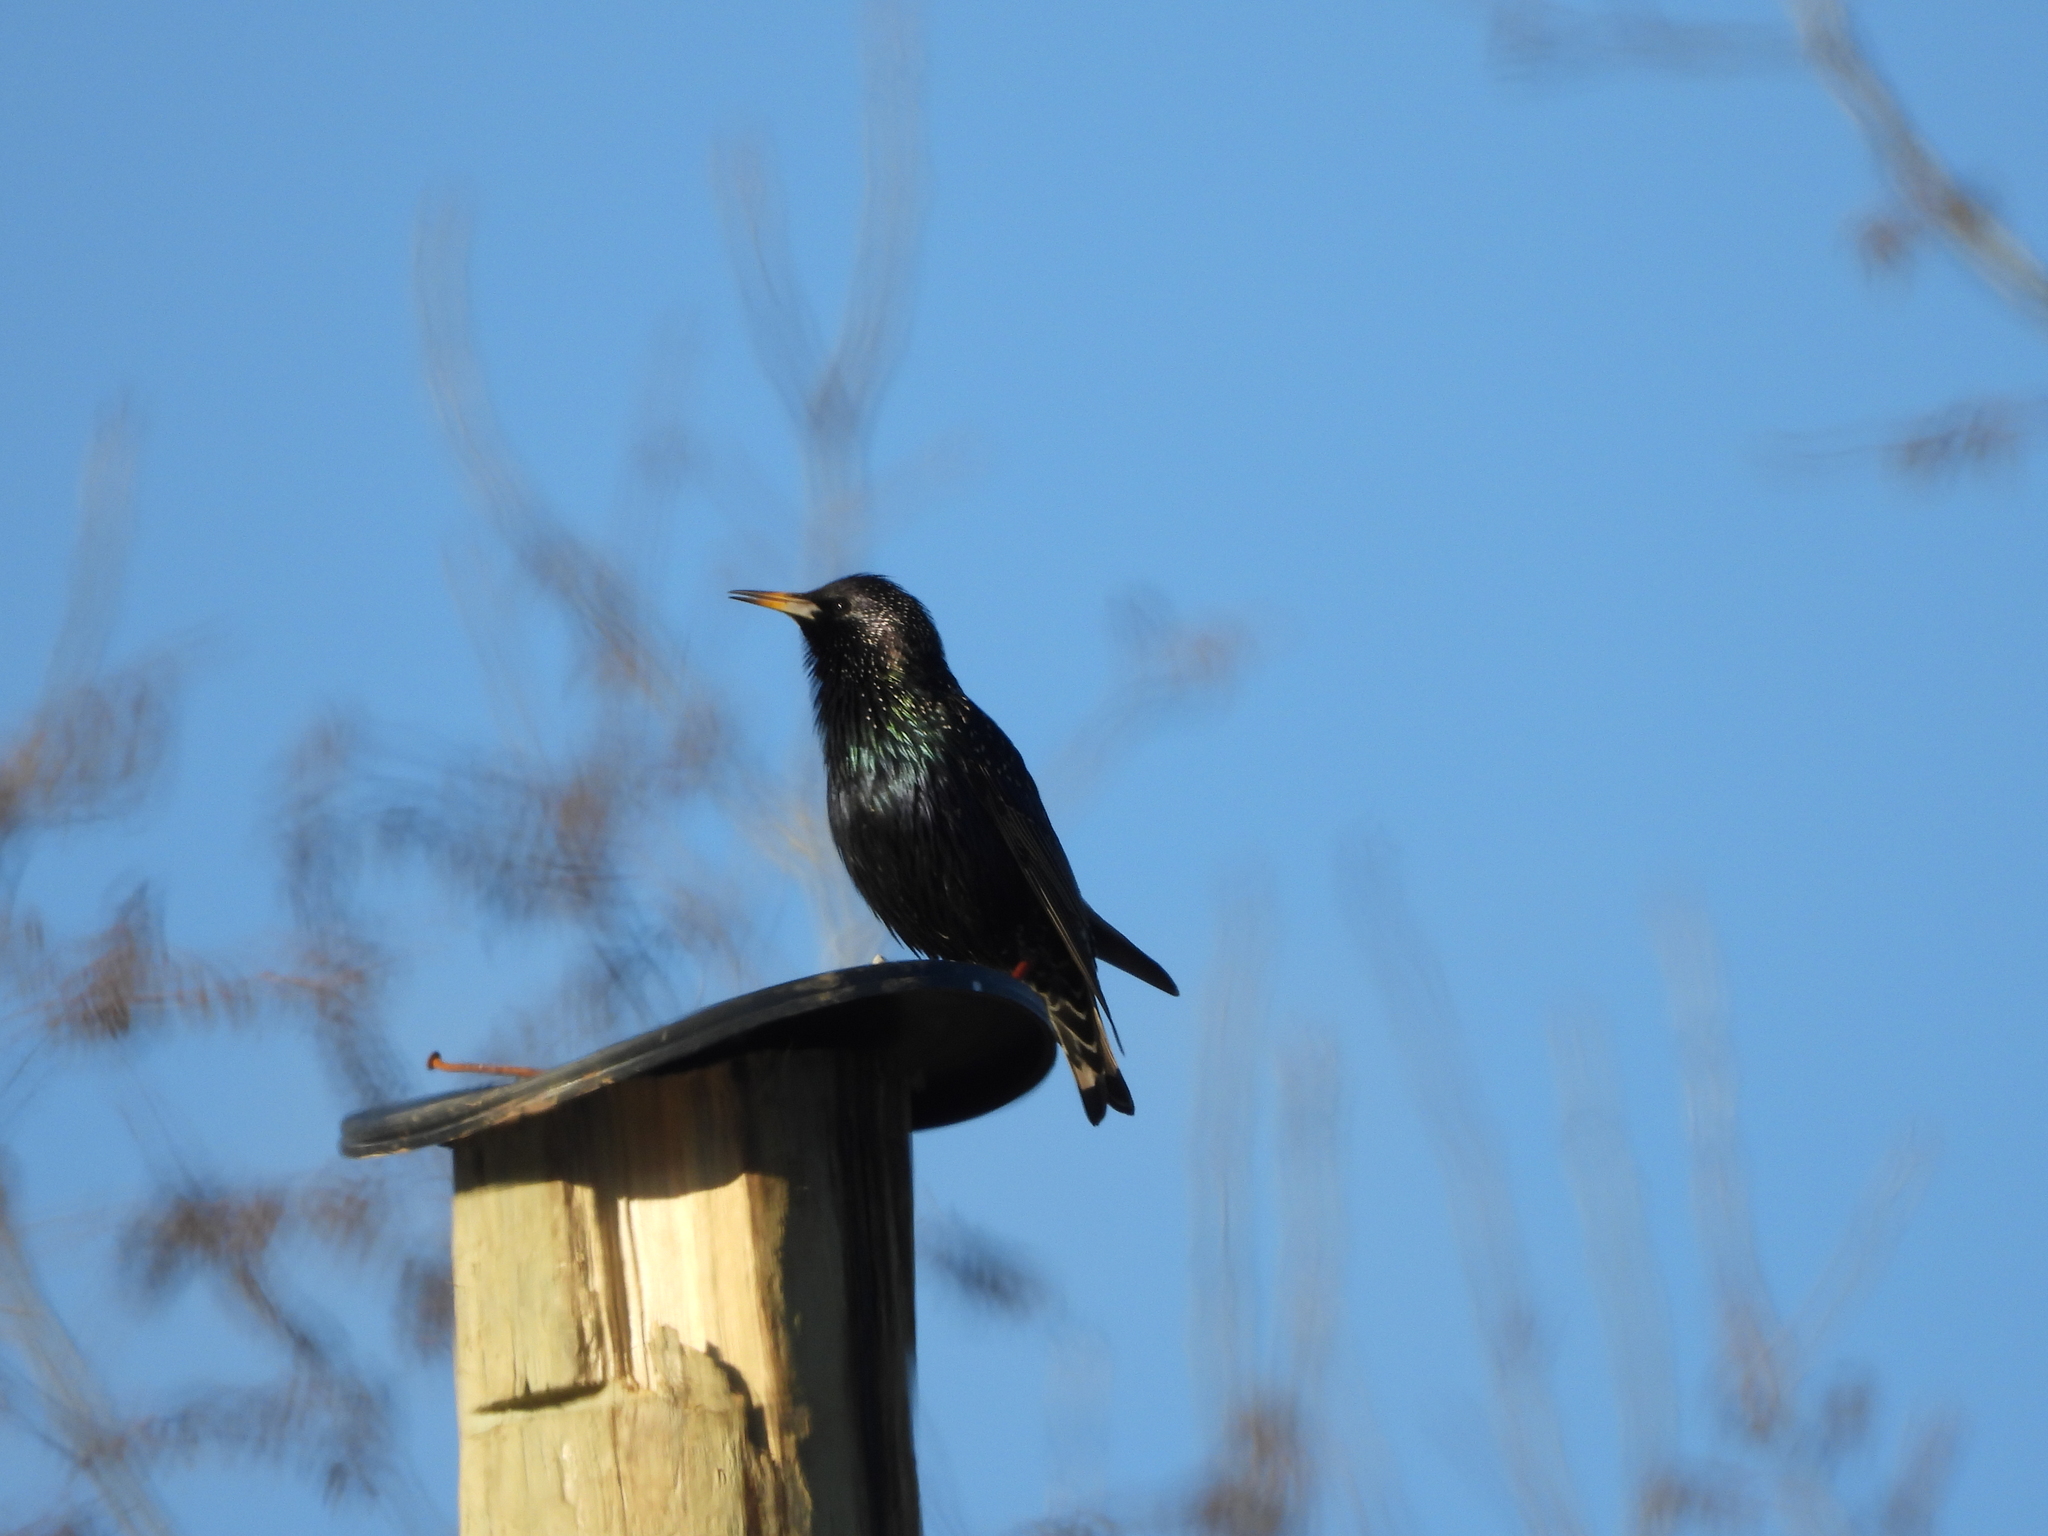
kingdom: Animalia
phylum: Chordata
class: Aves
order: Passeriformes
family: Sturnidae
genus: Sturnus
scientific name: Sturnus vulgaris
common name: Common starling
